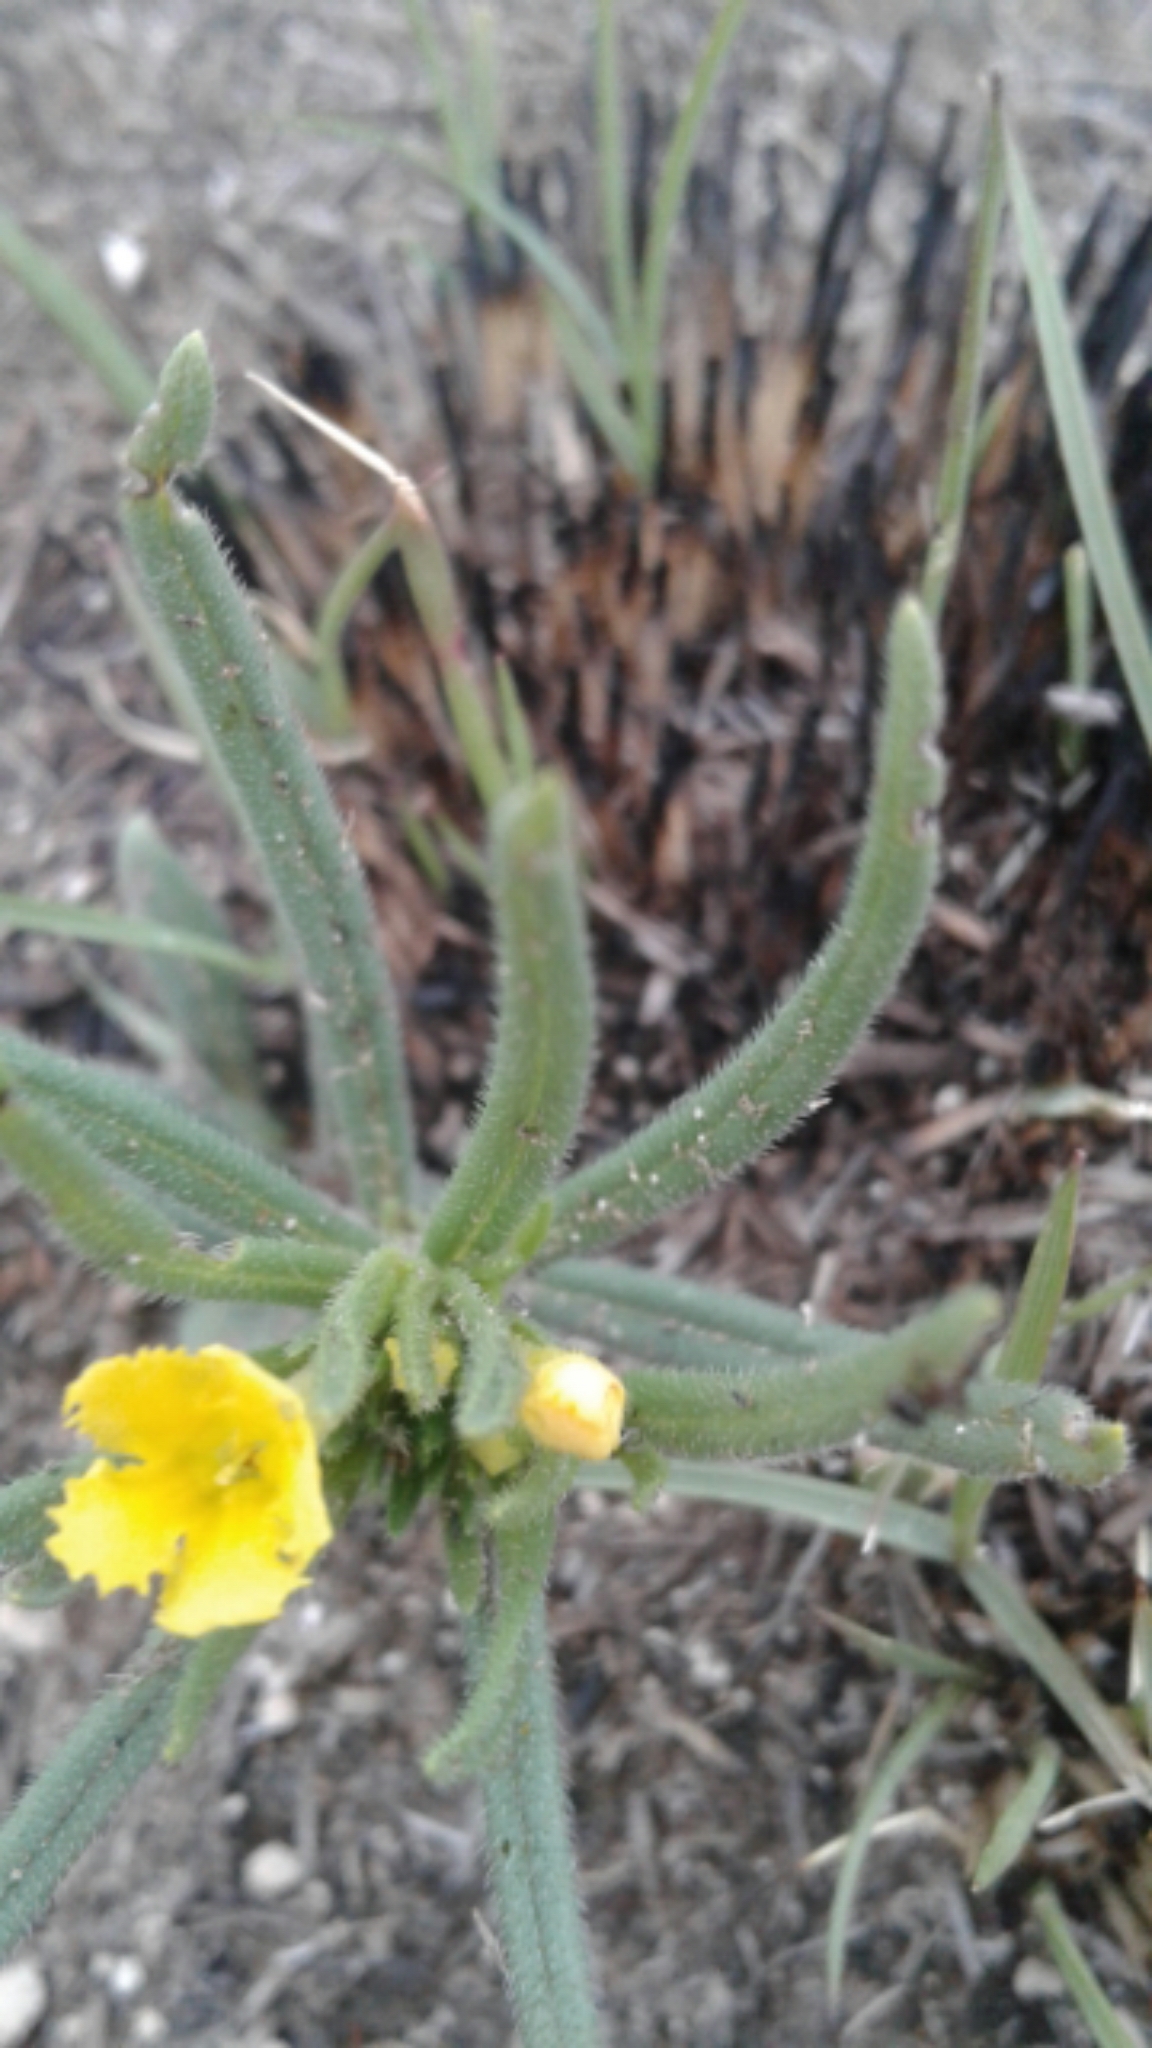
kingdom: Plantae
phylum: Tracheophyta
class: Magnoliopsida
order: Boraginales
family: Boraginaceae
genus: Lithospermum
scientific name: Lithospermum incisum
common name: Fringed gromwell
